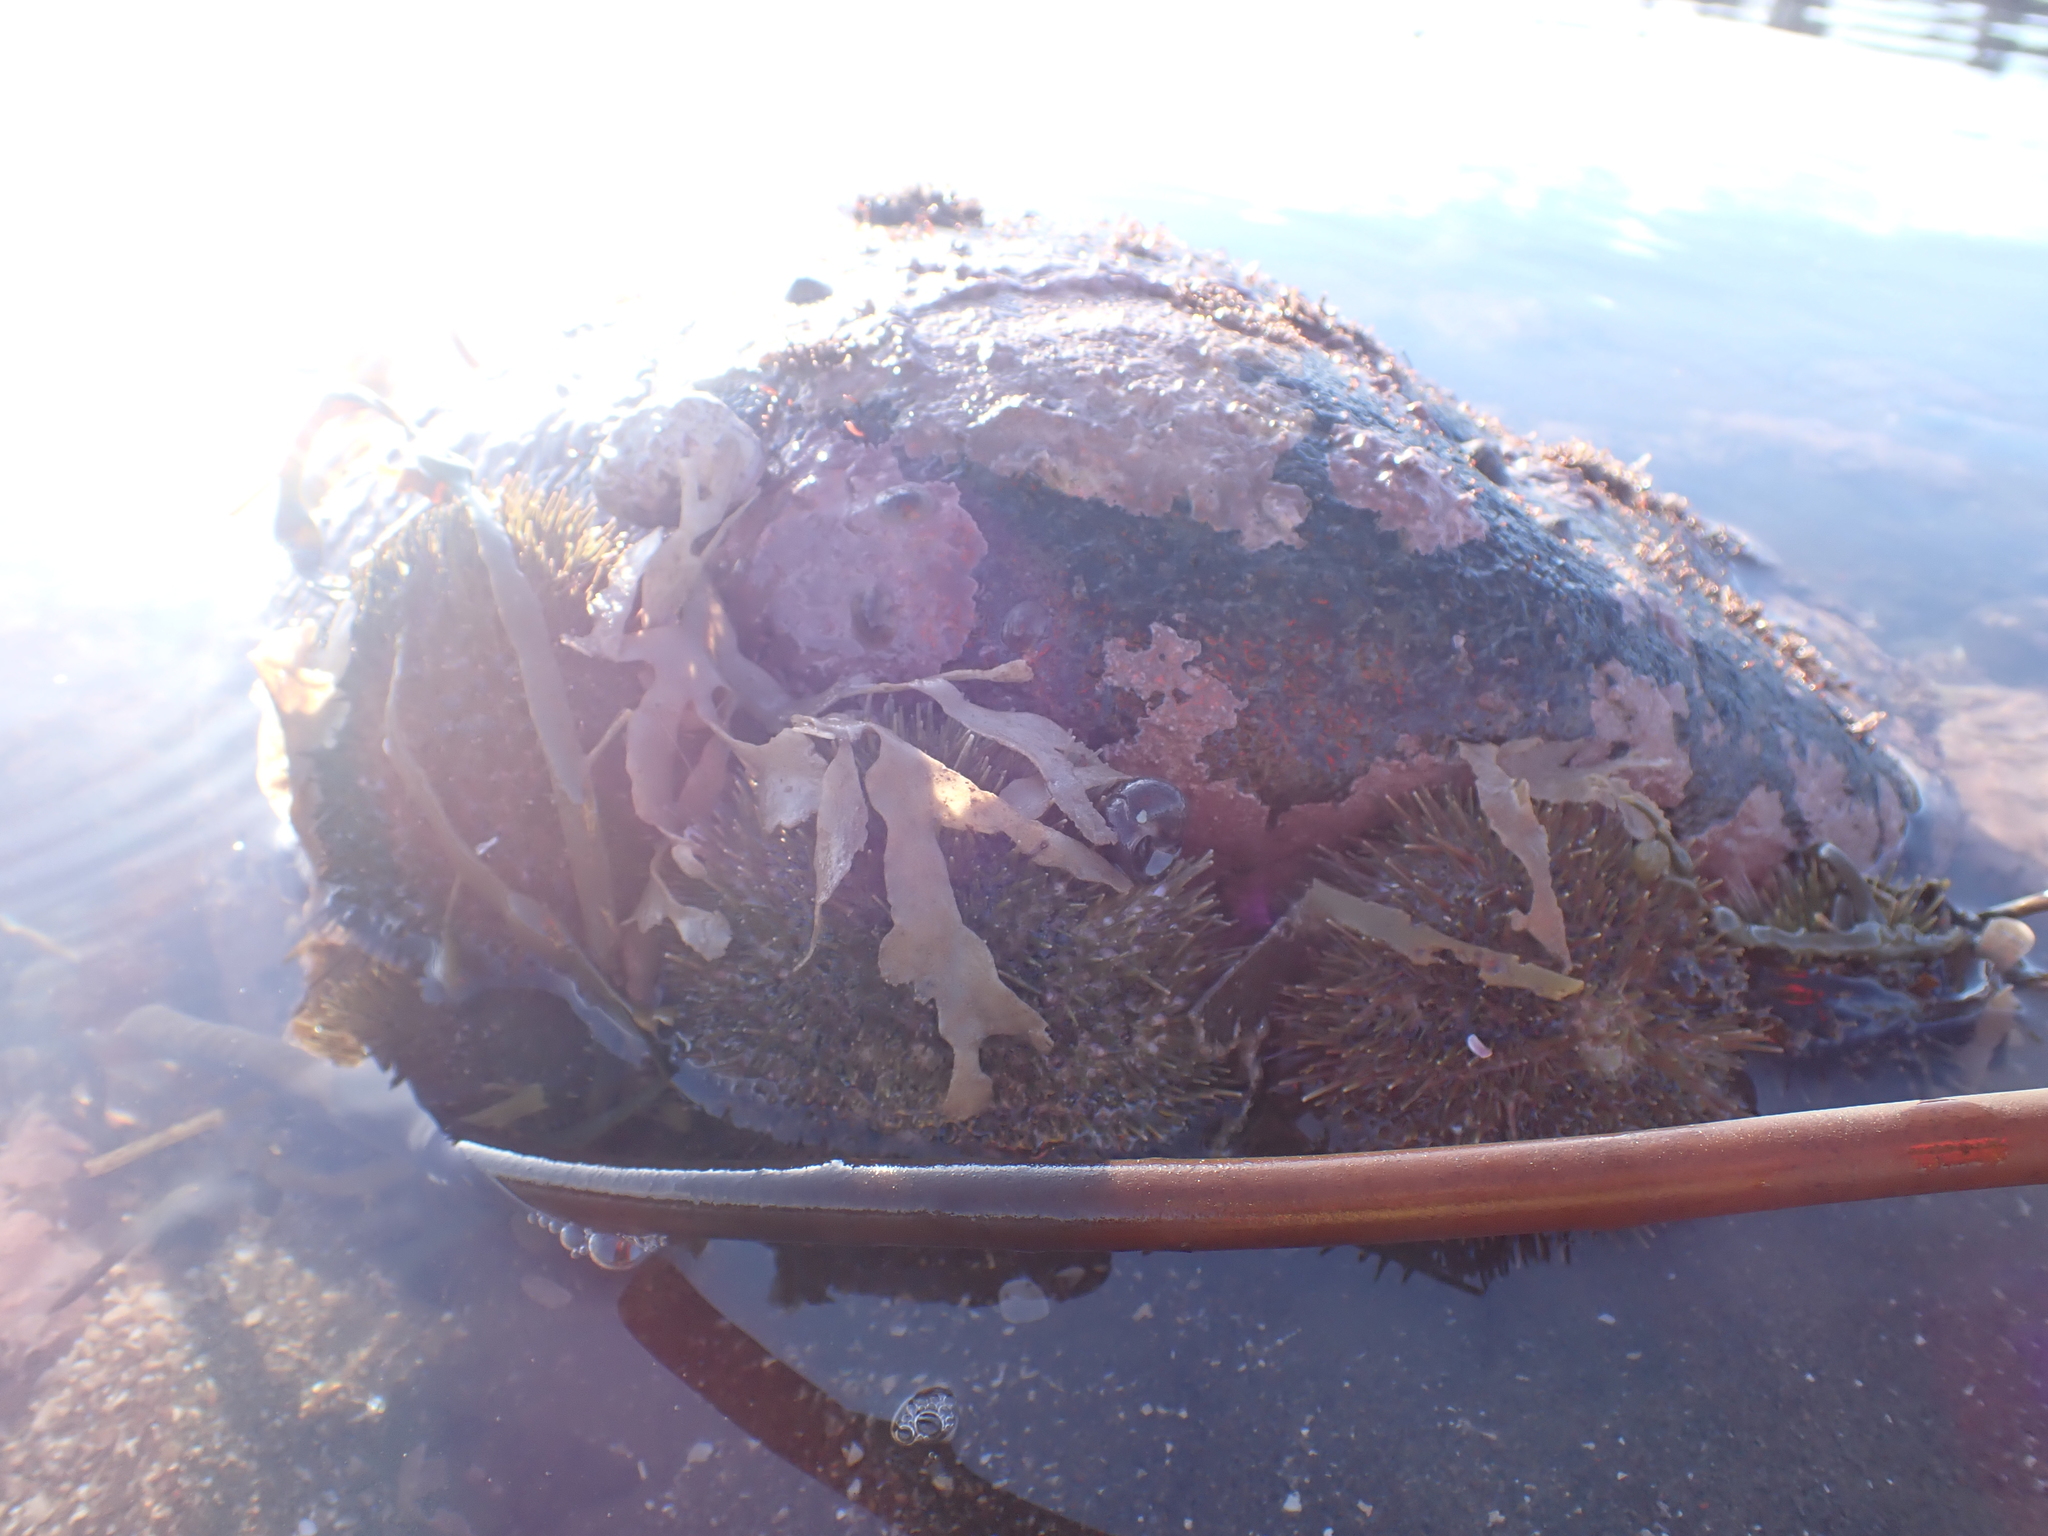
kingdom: Animalia
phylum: Echinodermata
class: Echinoidea
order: Camarodonta
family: Strongylocentrotidae
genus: Strongylocentrotus
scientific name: Strongylocentrotus droebachiensis
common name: Northern sea urchin
